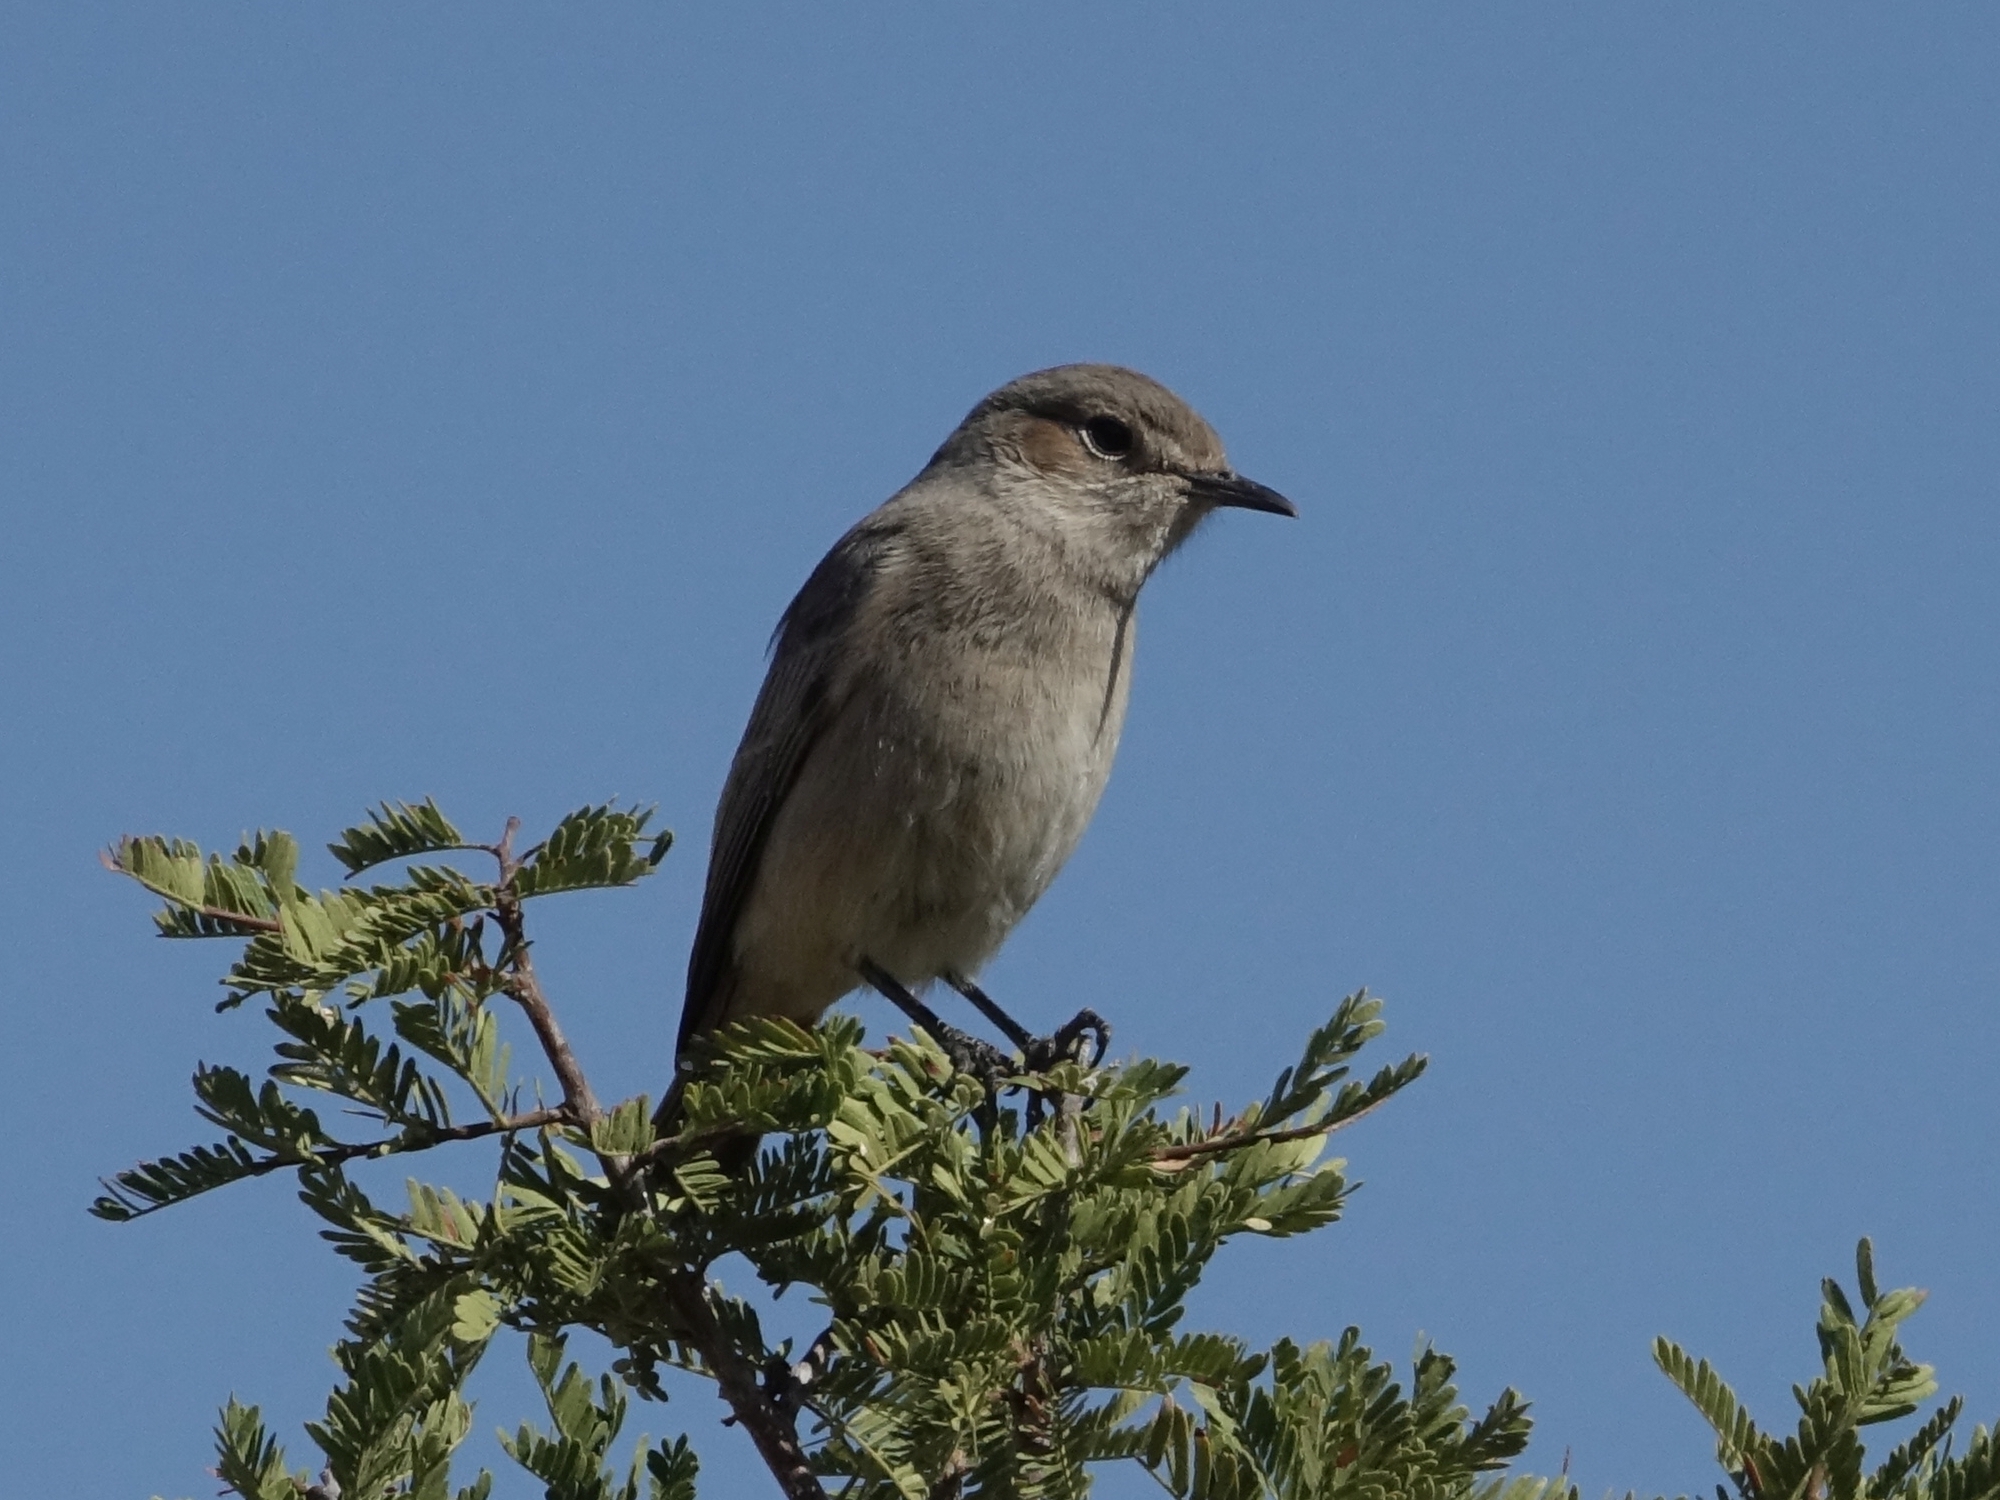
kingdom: Animalia
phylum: Chordata
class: Aves
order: Passeriformes
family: Muscicapidae
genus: Oenanthe
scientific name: Oenanthe familiaris
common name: Familiar chat
